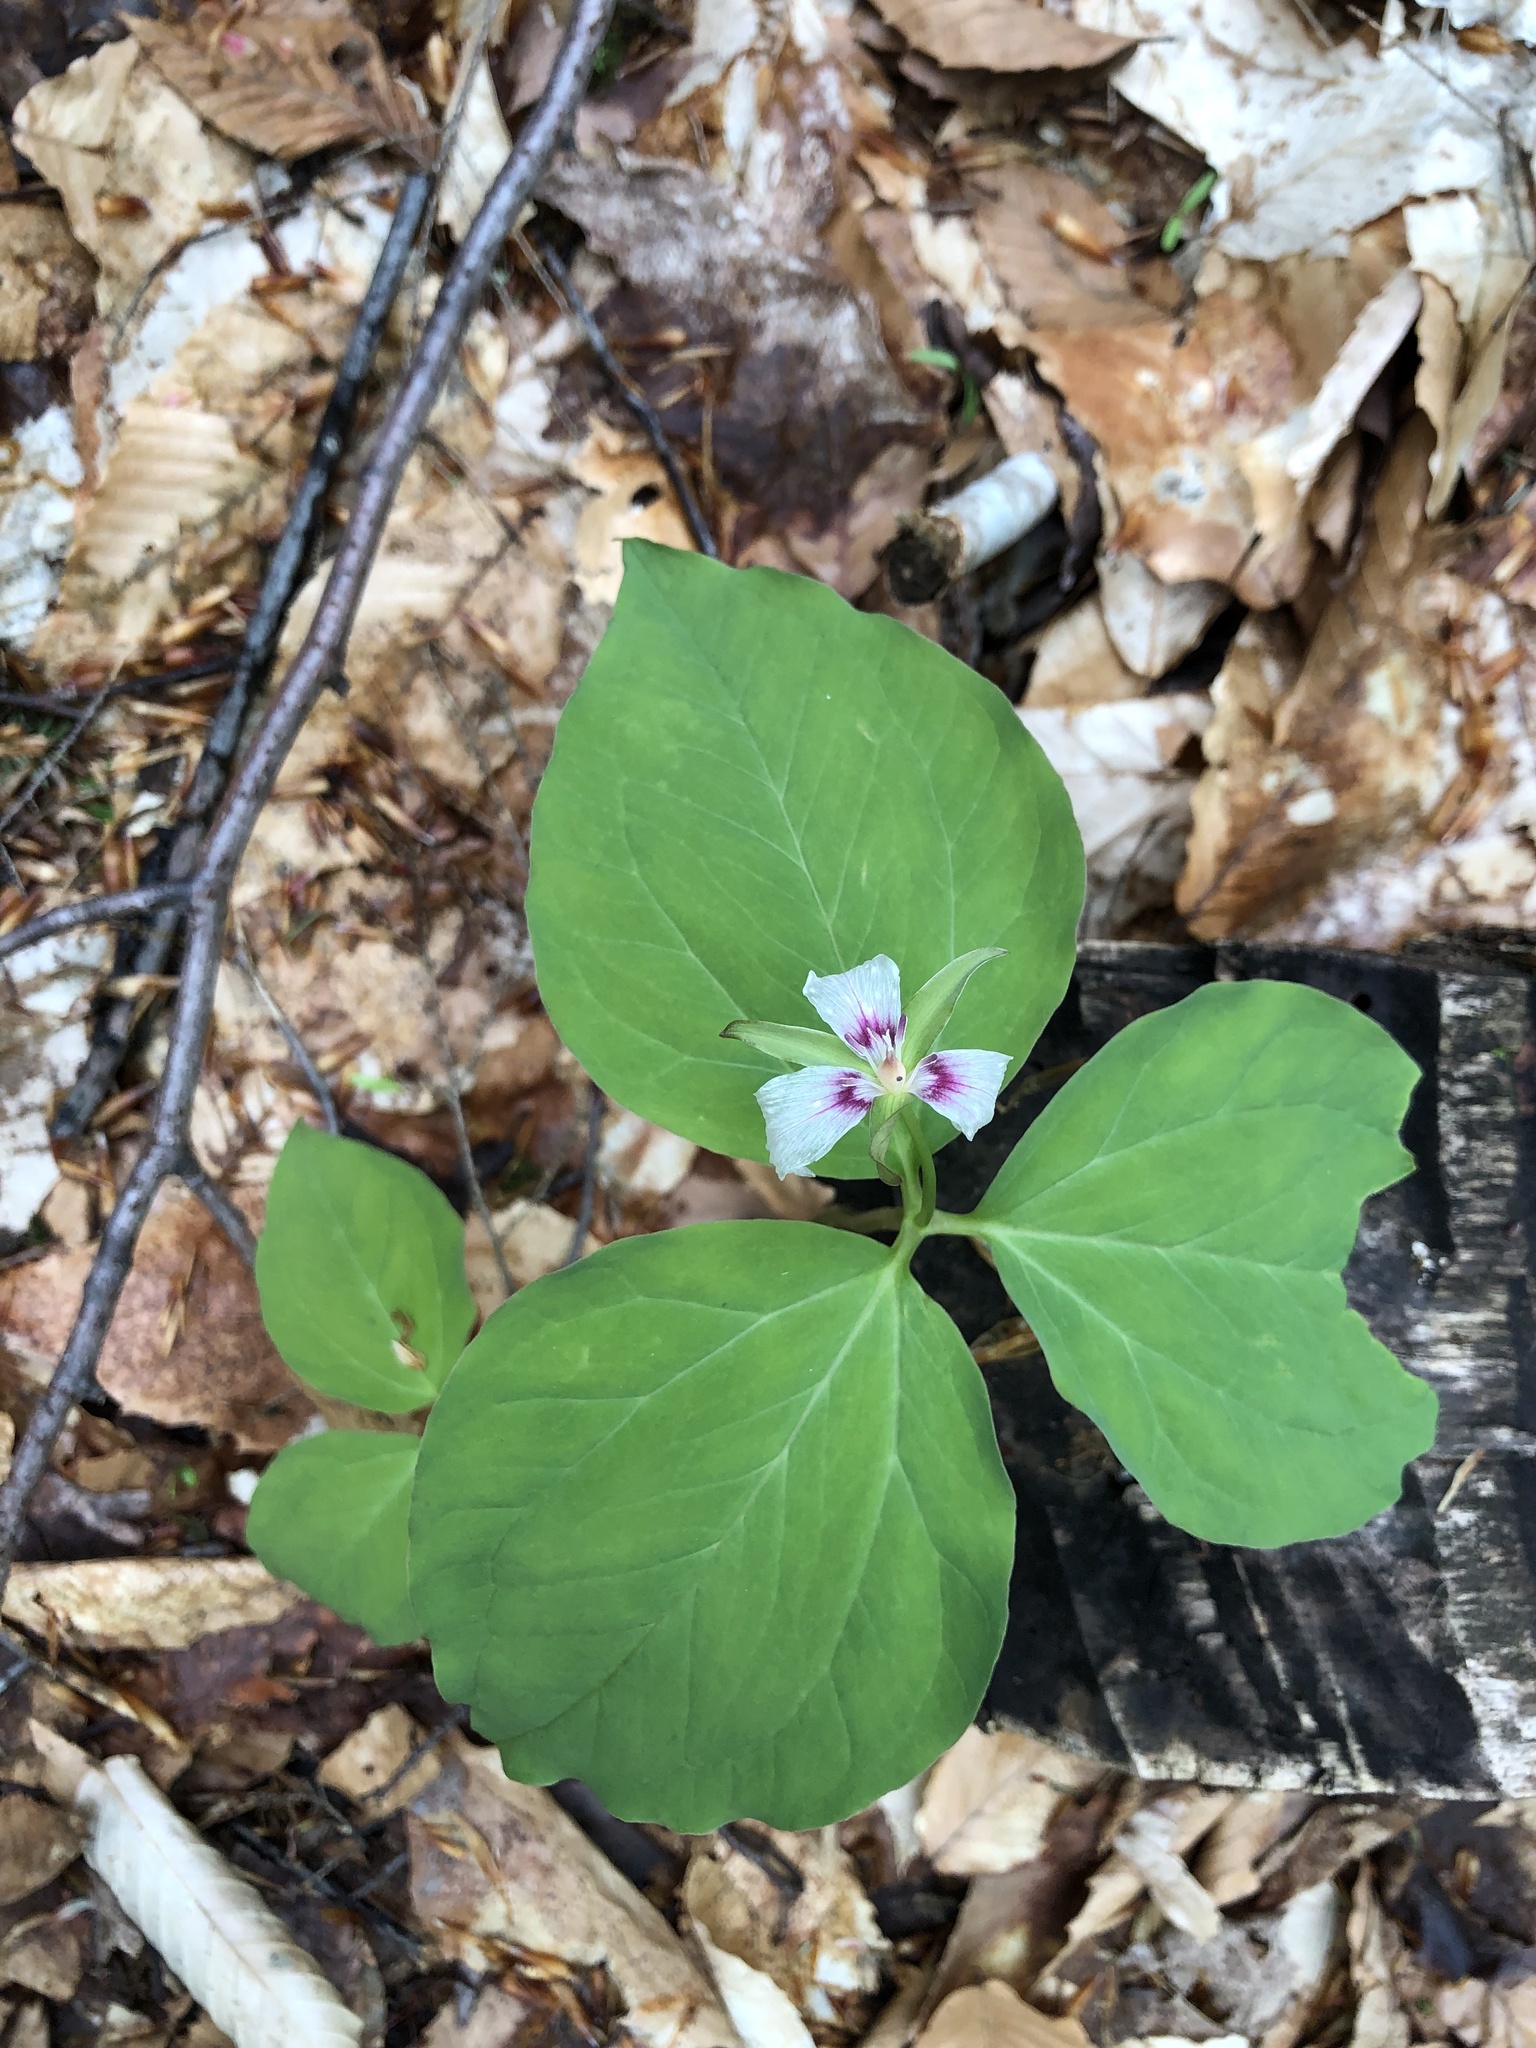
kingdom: Plantae
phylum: Tracheophyta
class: Liliopsida
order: Liliales
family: Melanthiaceae
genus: Trillium
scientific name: Trillium undulatum
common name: Paint trillium
